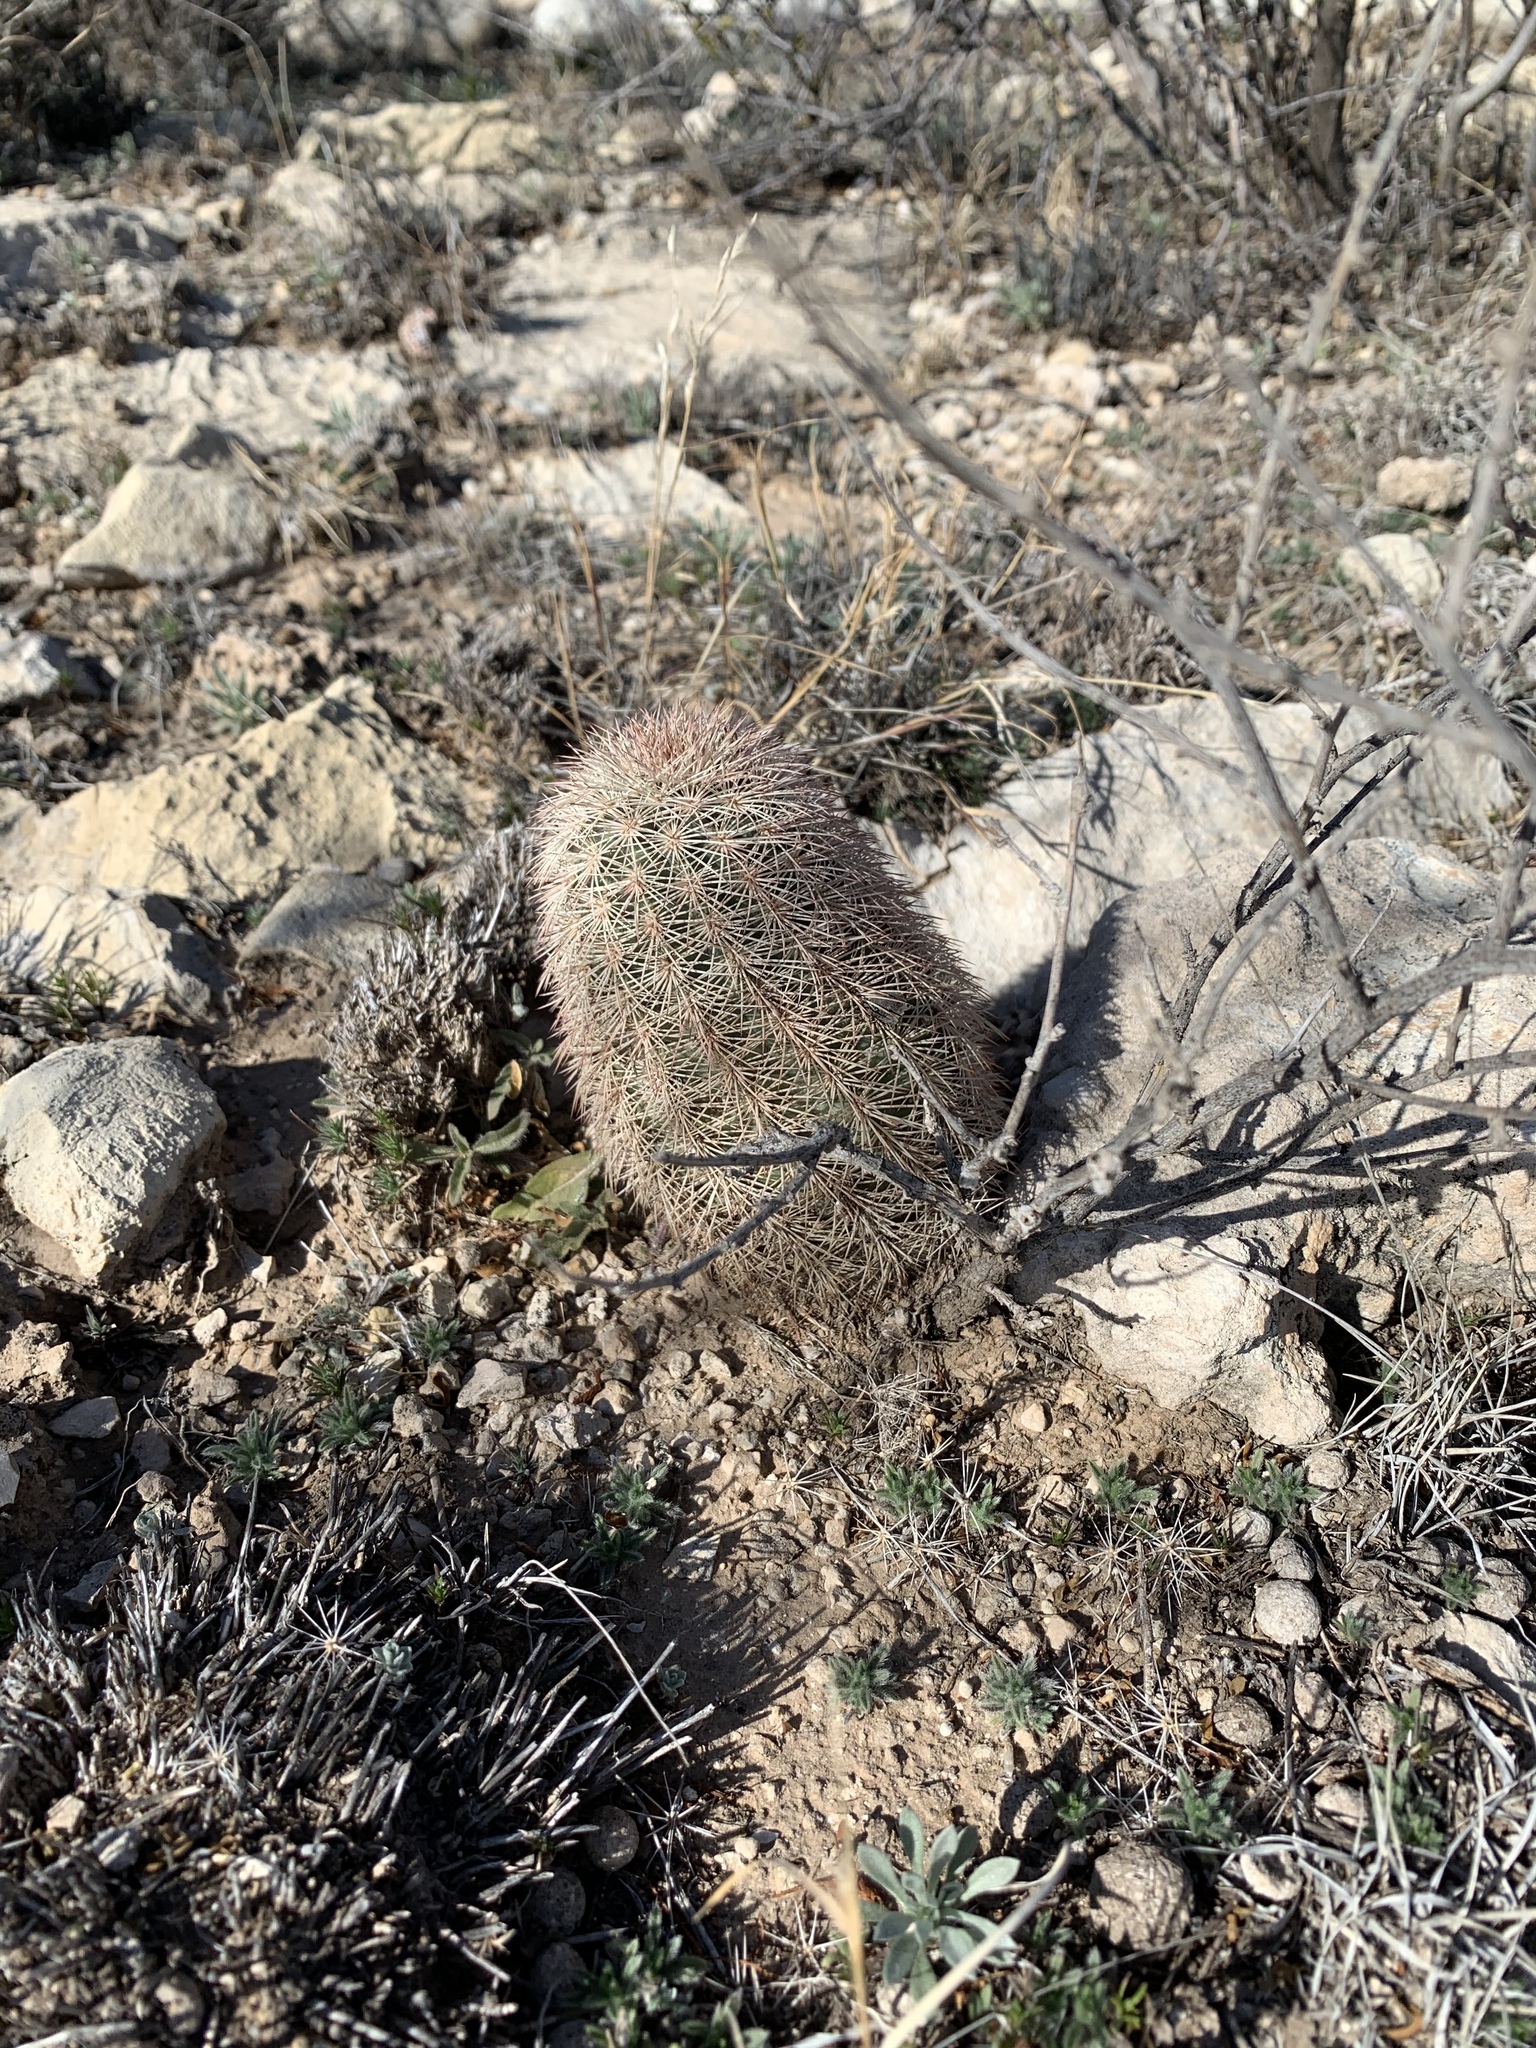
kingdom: Plantae
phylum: Tracheophyta
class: Magnoliopsida
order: Caryophyllales
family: Cactaceae
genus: Echinocereus
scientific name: Echinocereus dasyacanthus
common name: Spiny hedgehog cactus
